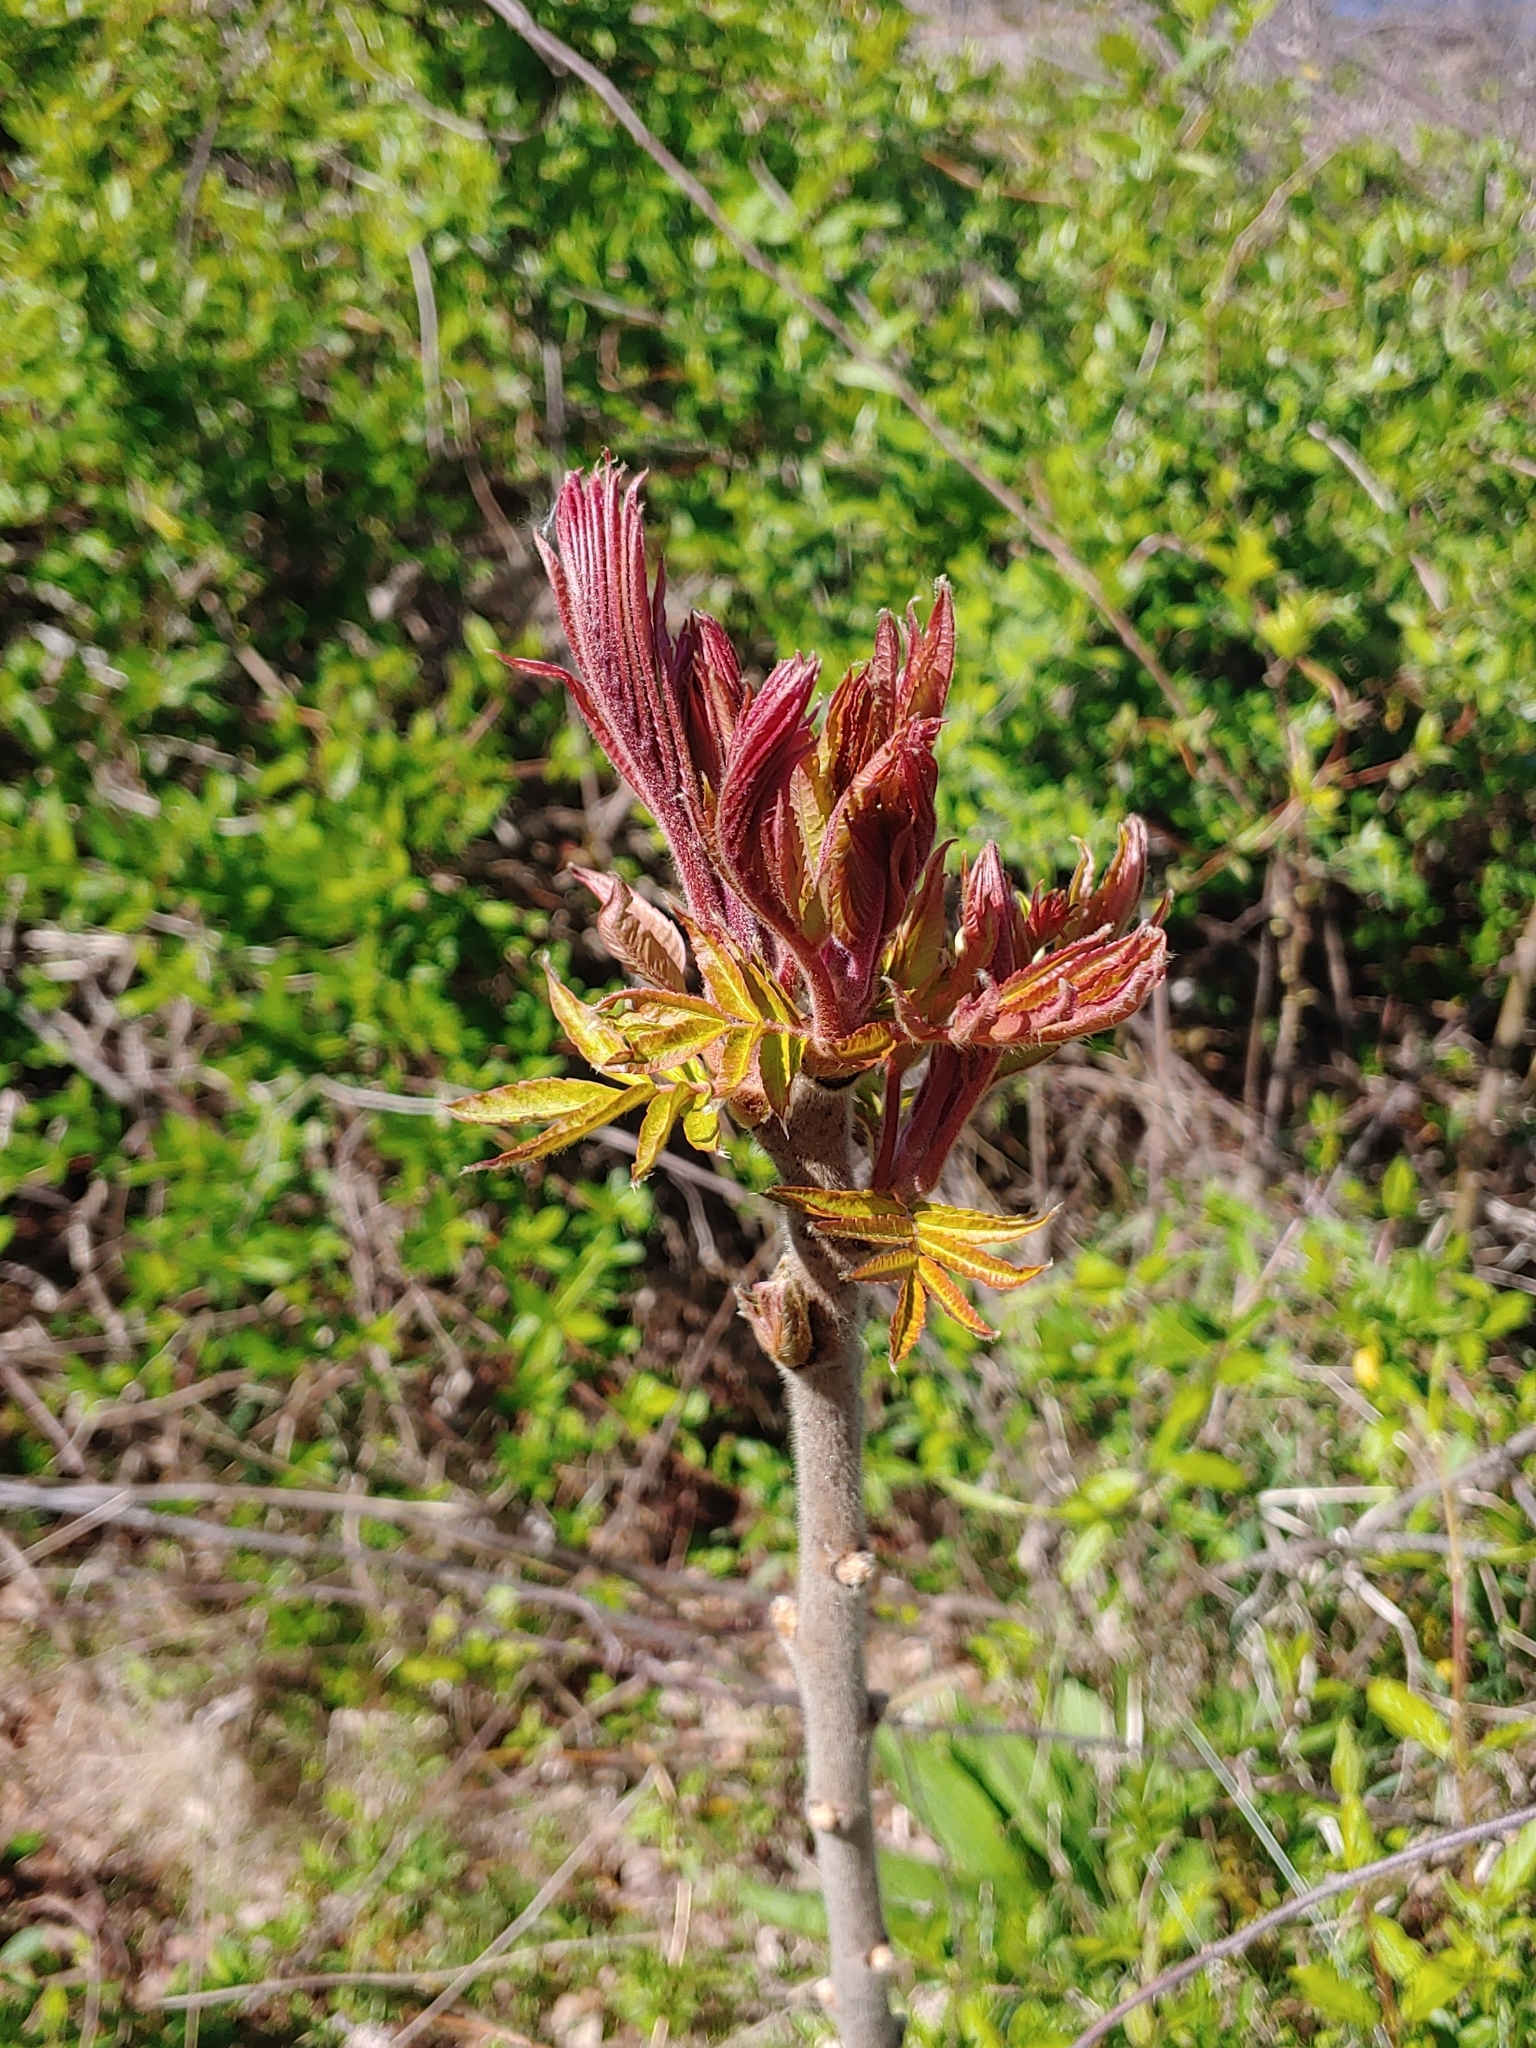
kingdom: Plantae
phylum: Tracheophyta
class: Magnoliopsida
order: Sapindales
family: Anacardiaceae
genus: Rhus
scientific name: Rhus typhina
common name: Staghorn sumac
